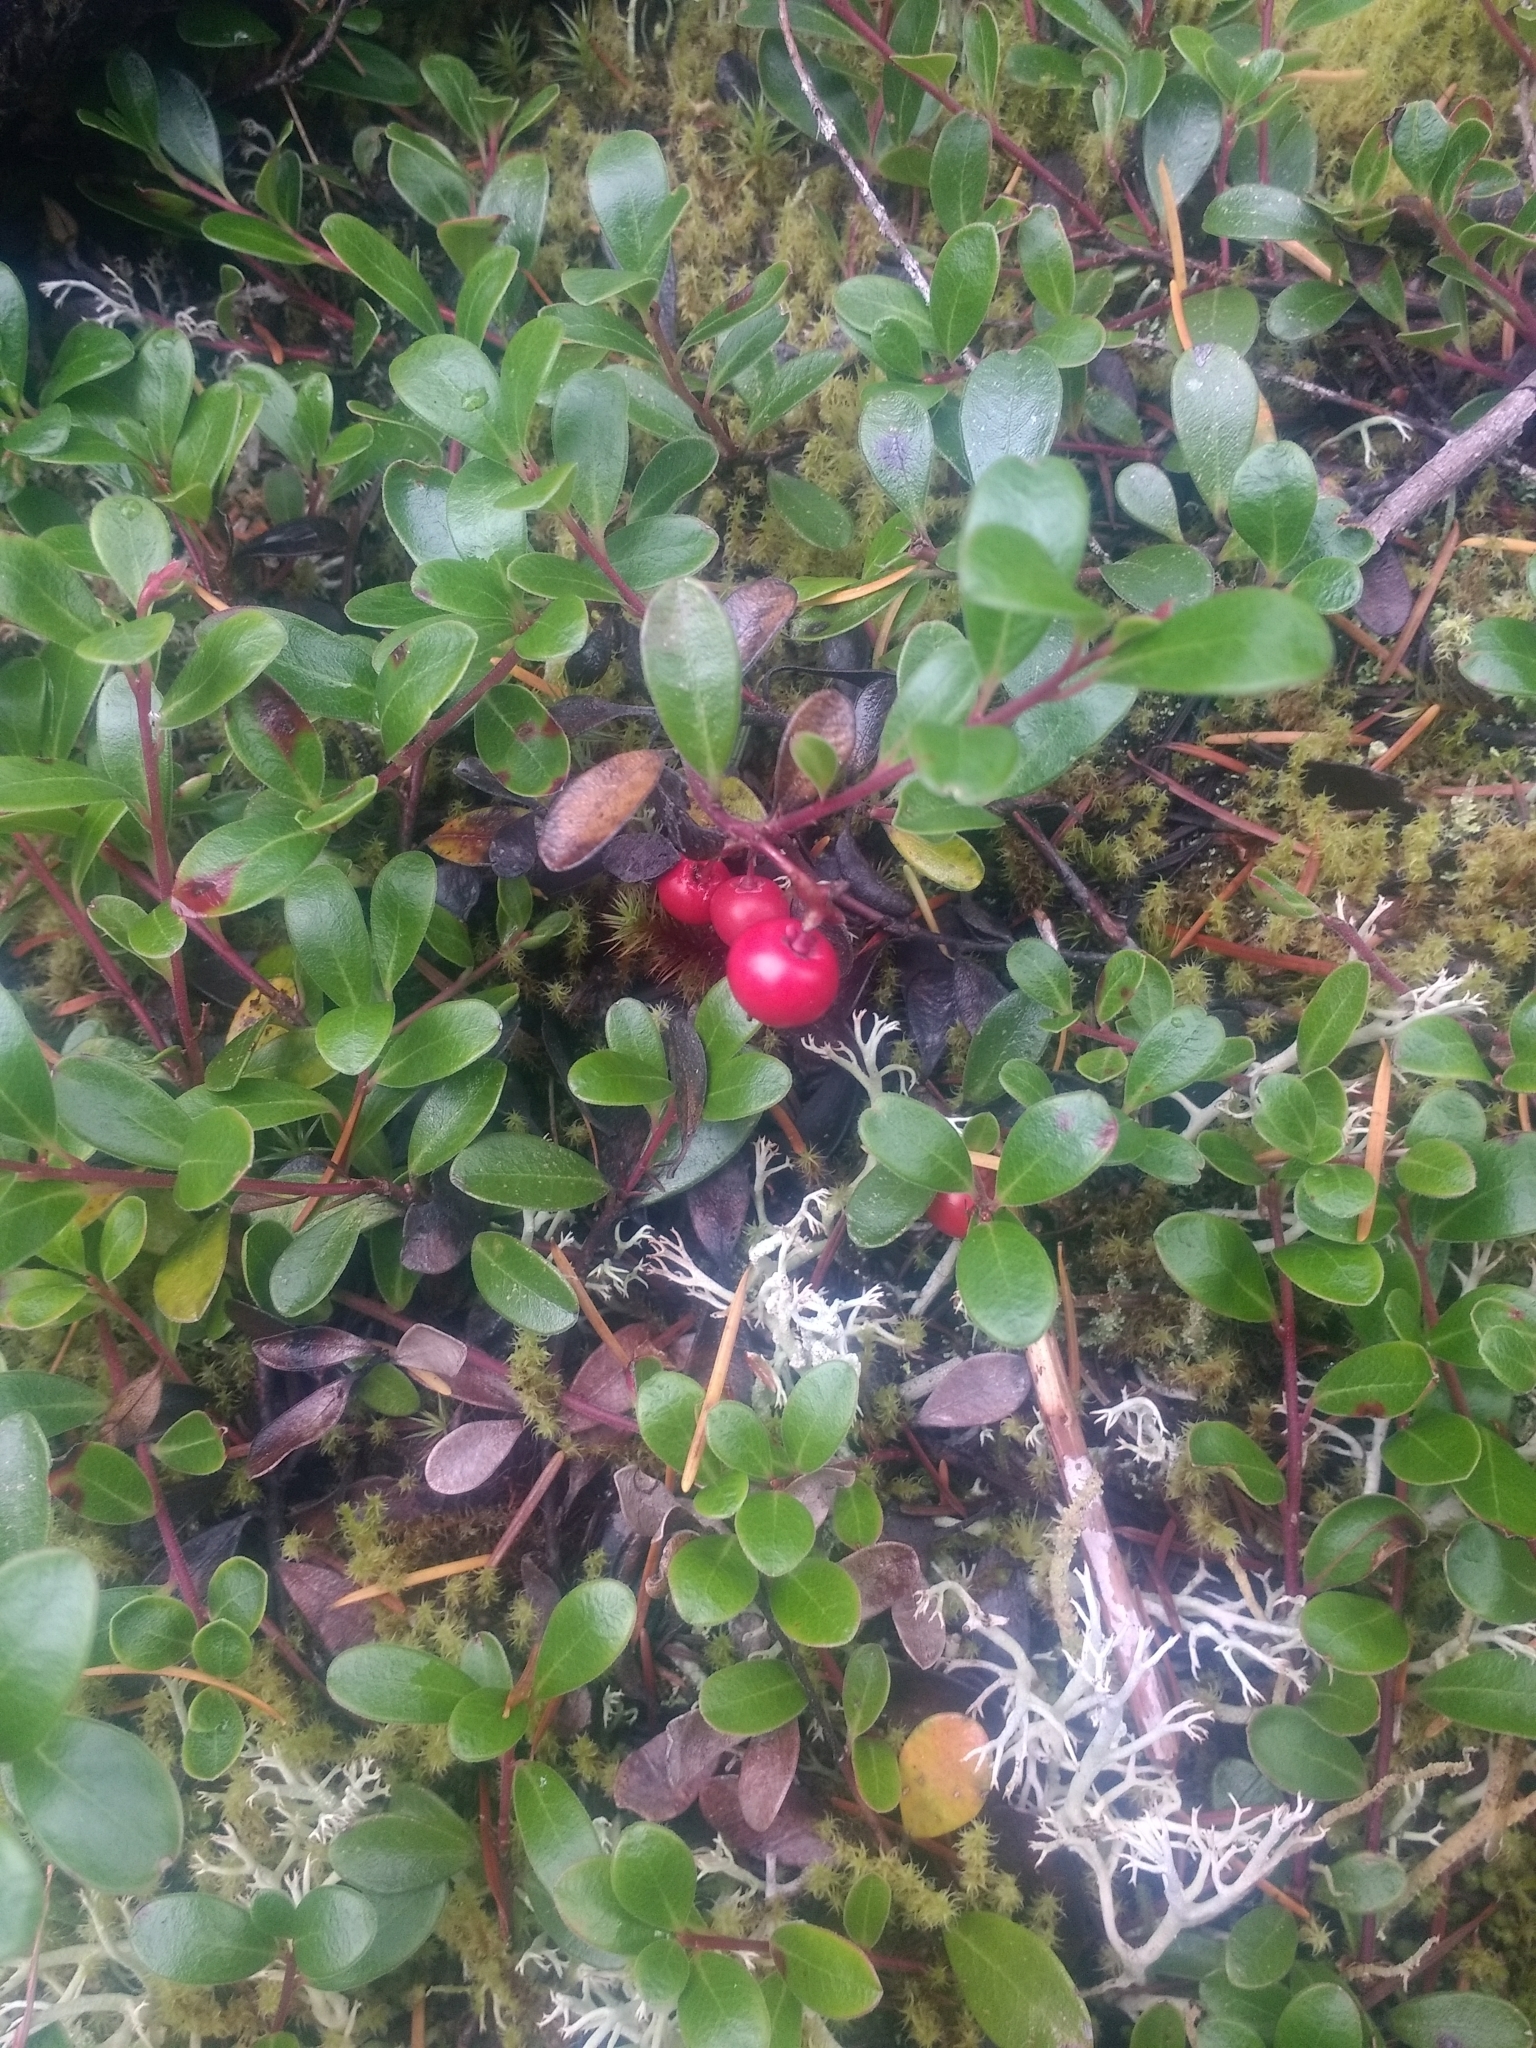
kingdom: Plantae
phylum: Tracheophyta
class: Magnoliopsida
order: Ericales
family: Ericaceae
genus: Arctostaphylos
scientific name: Arctostaphylos uva-ursi
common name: Bearberry
